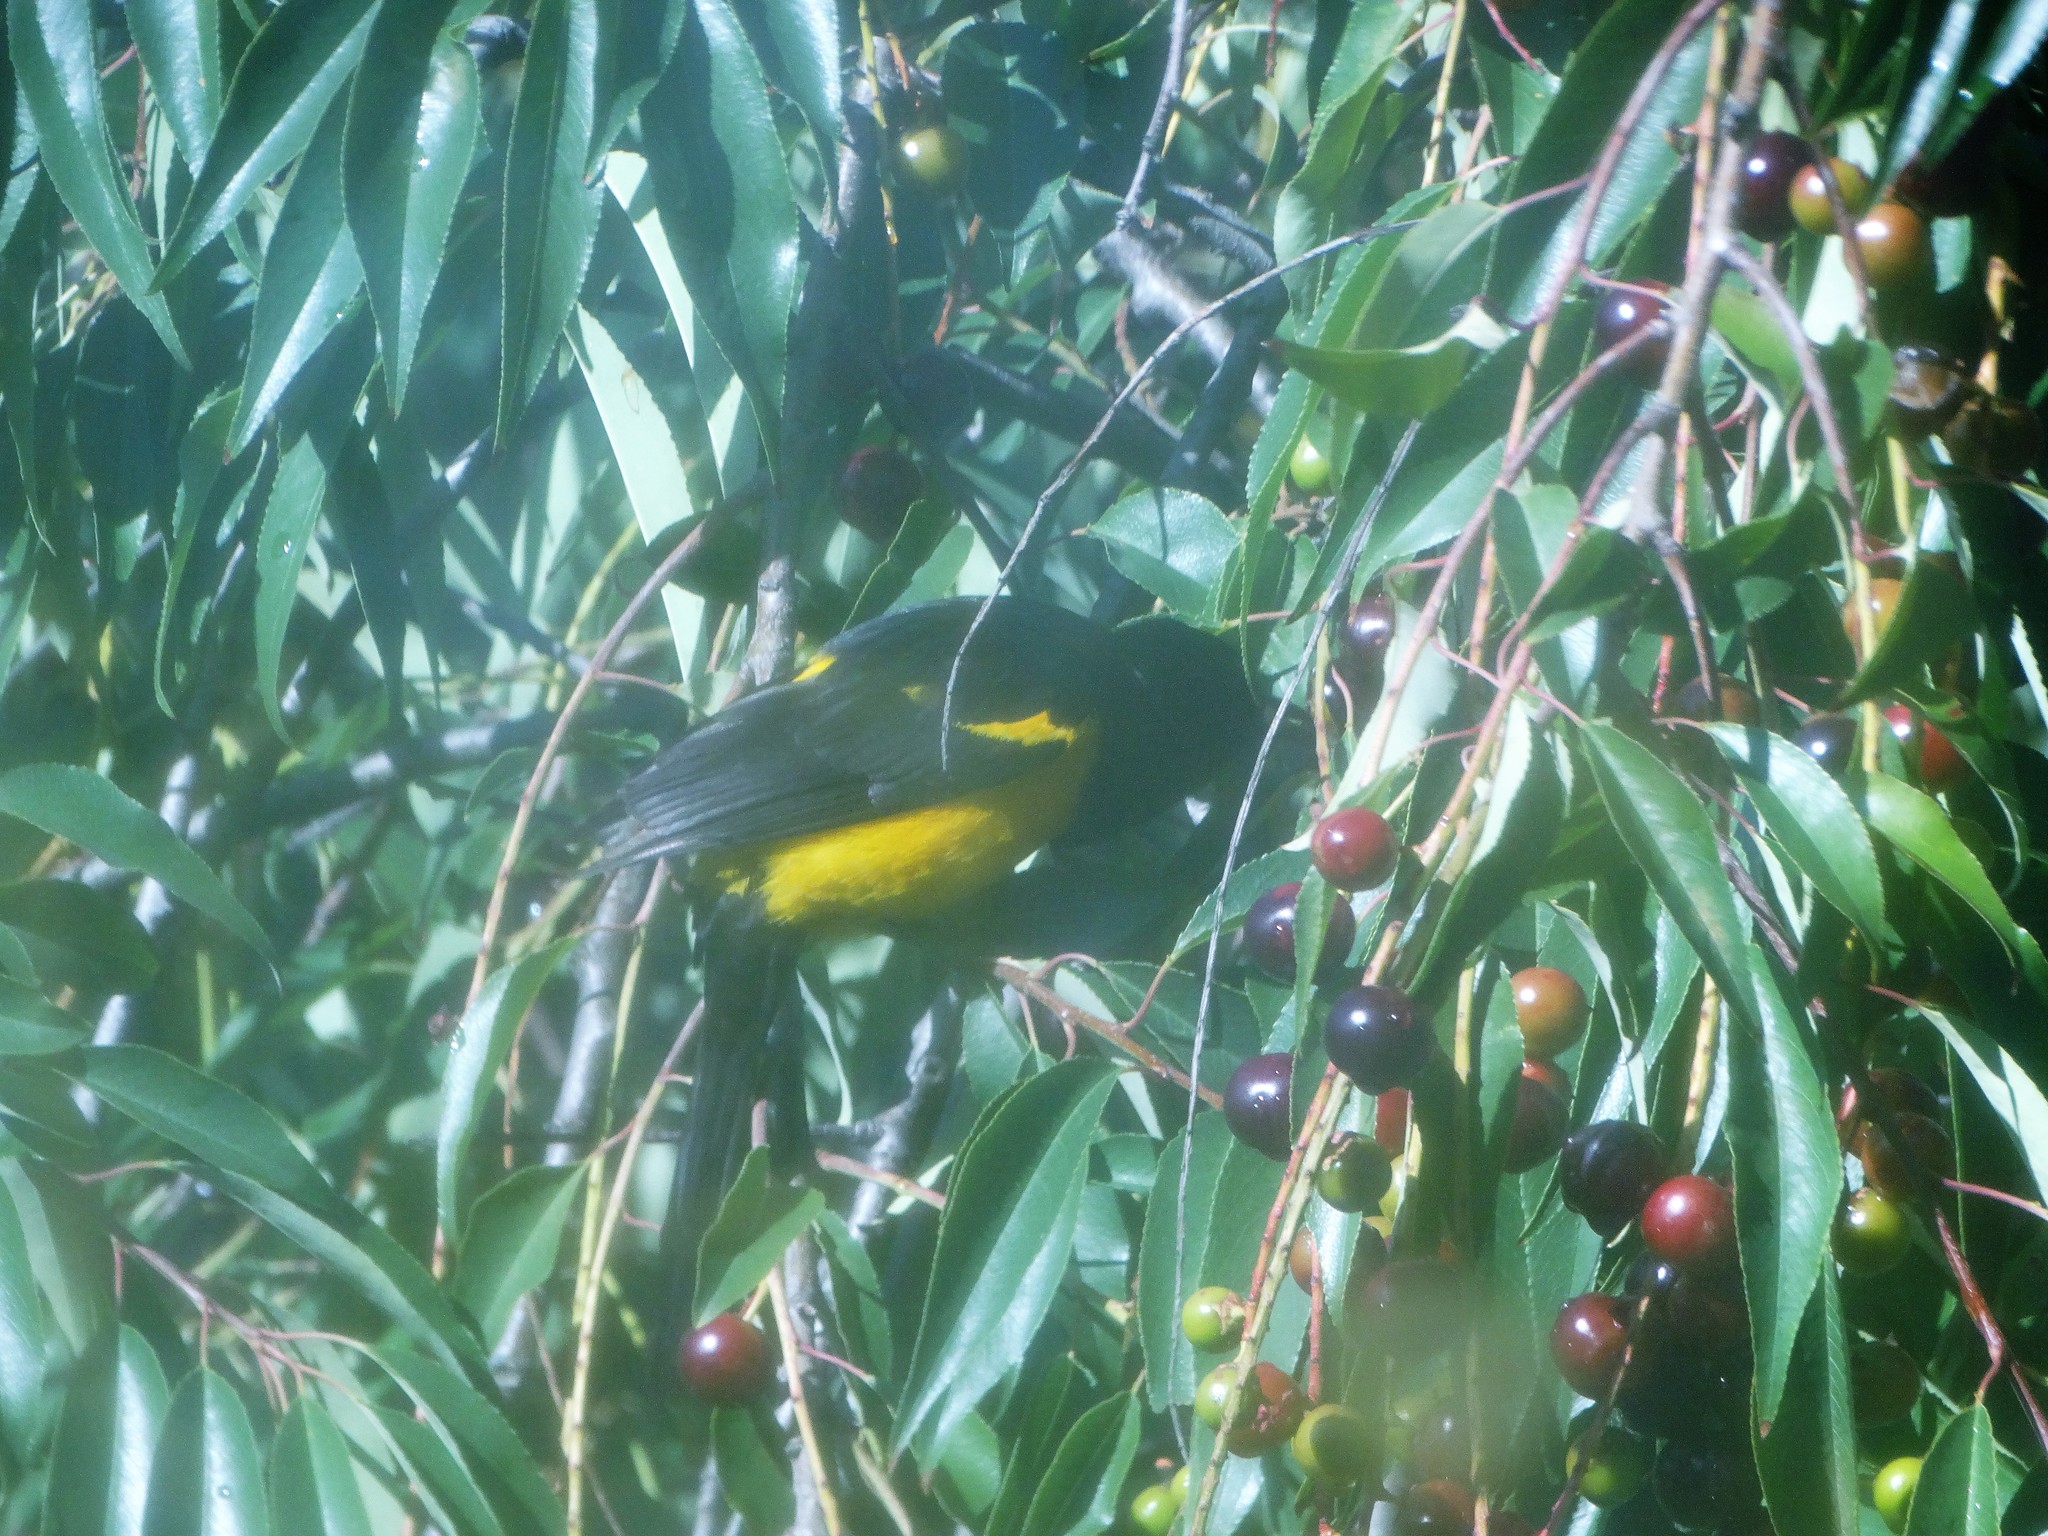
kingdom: Animalia
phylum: Chordata
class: Aves
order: Passeriformes
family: Icteridae
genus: Icterus
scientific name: Icterus parisorum
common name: Scott's oriole
